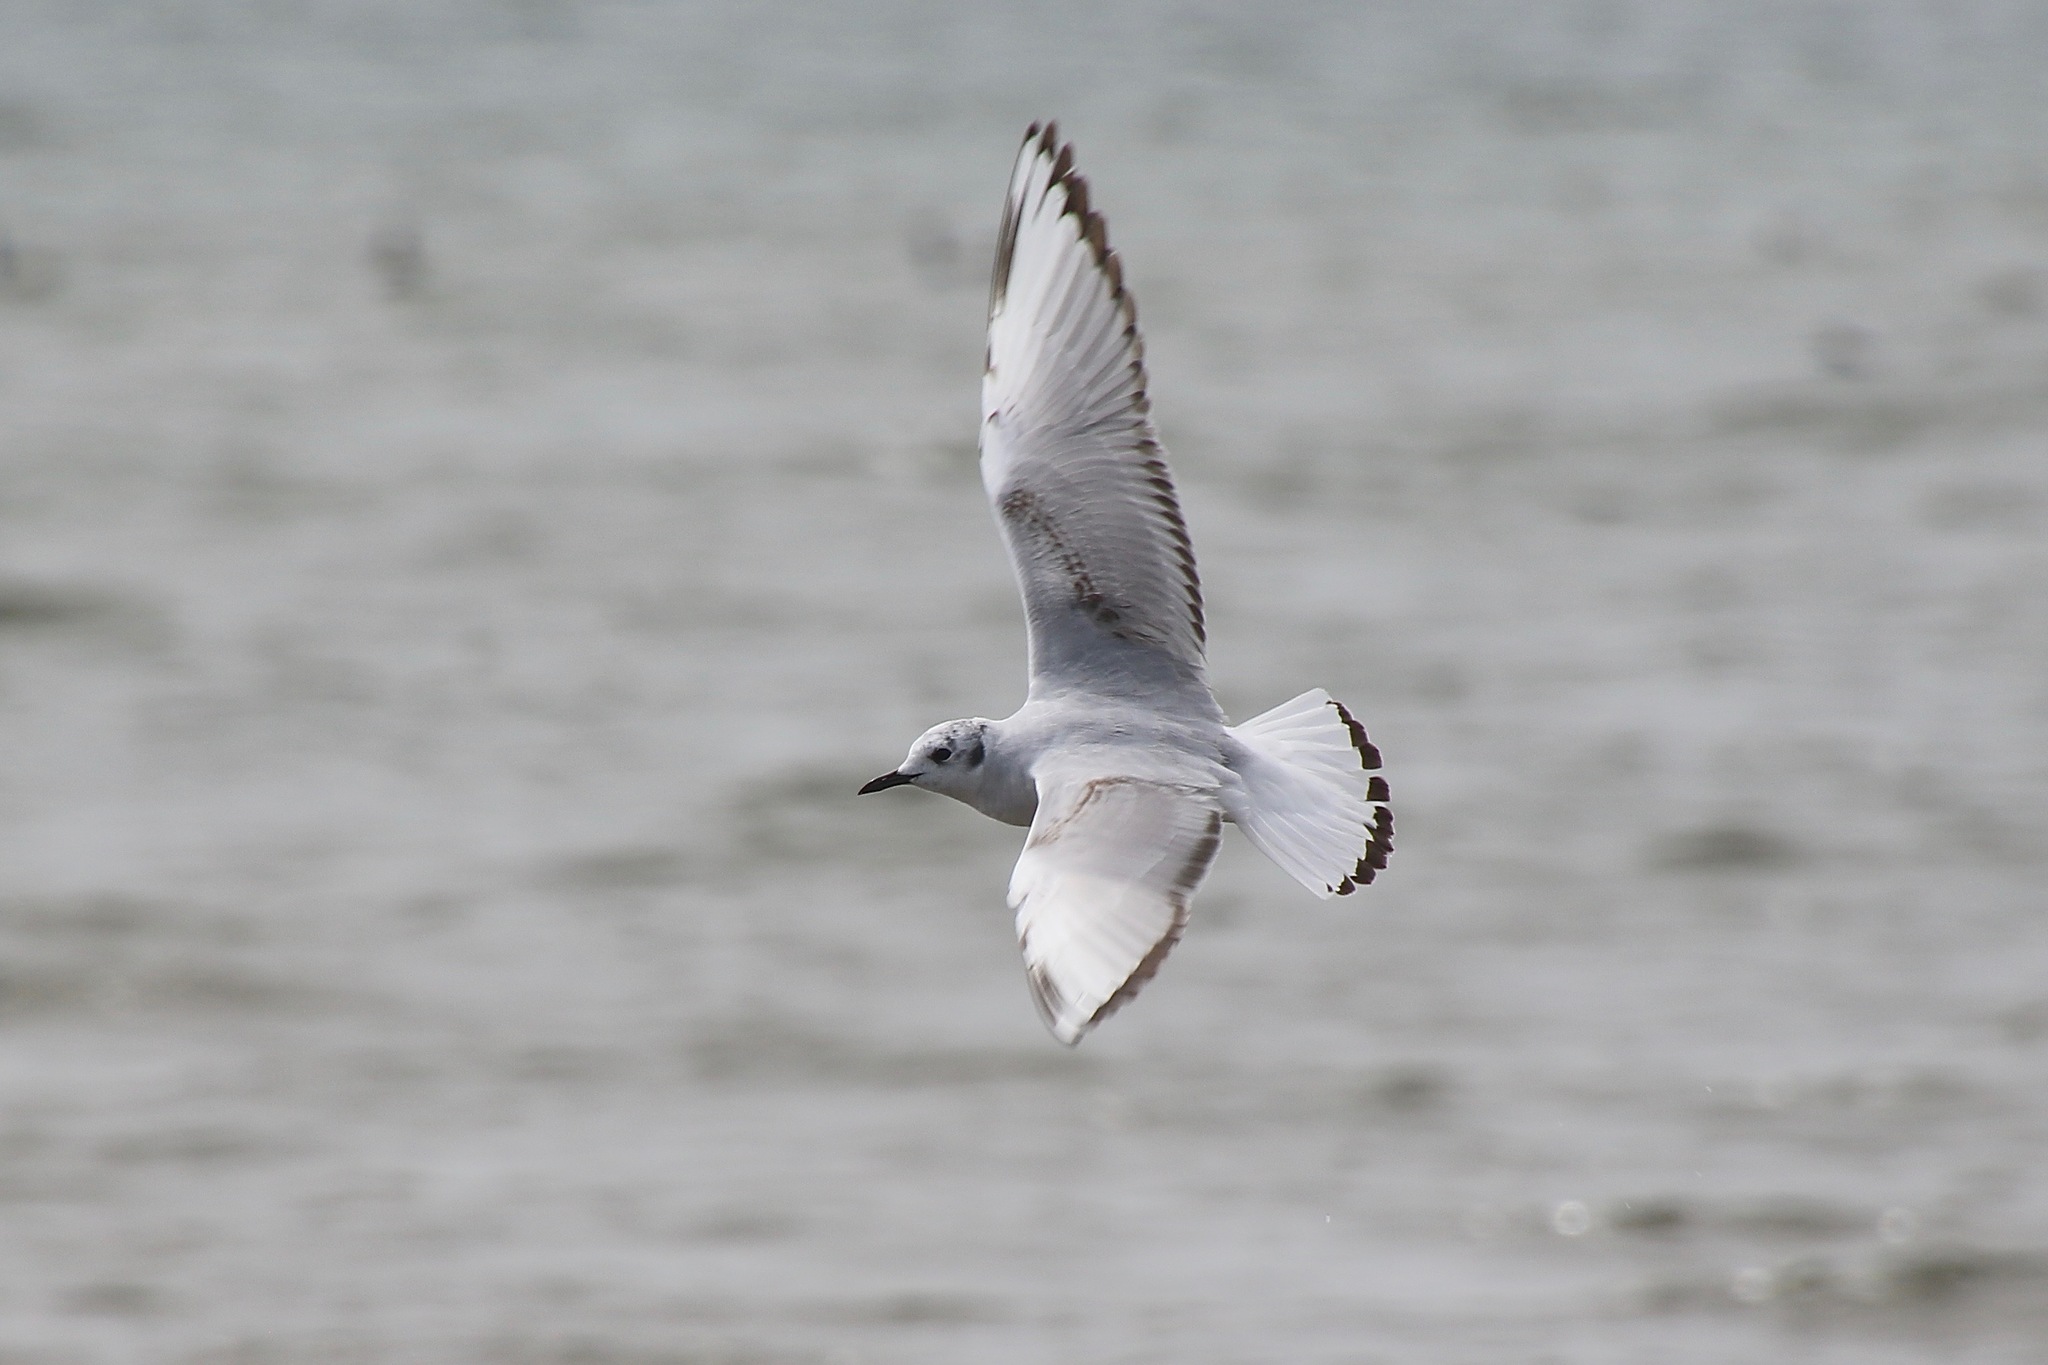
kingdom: Animalia
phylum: Chordata
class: Aves
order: Charadriiformes
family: Laridae
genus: Chroicocephalus
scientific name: Chroicocephalus philadelphia
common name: Bonaparte's gull
